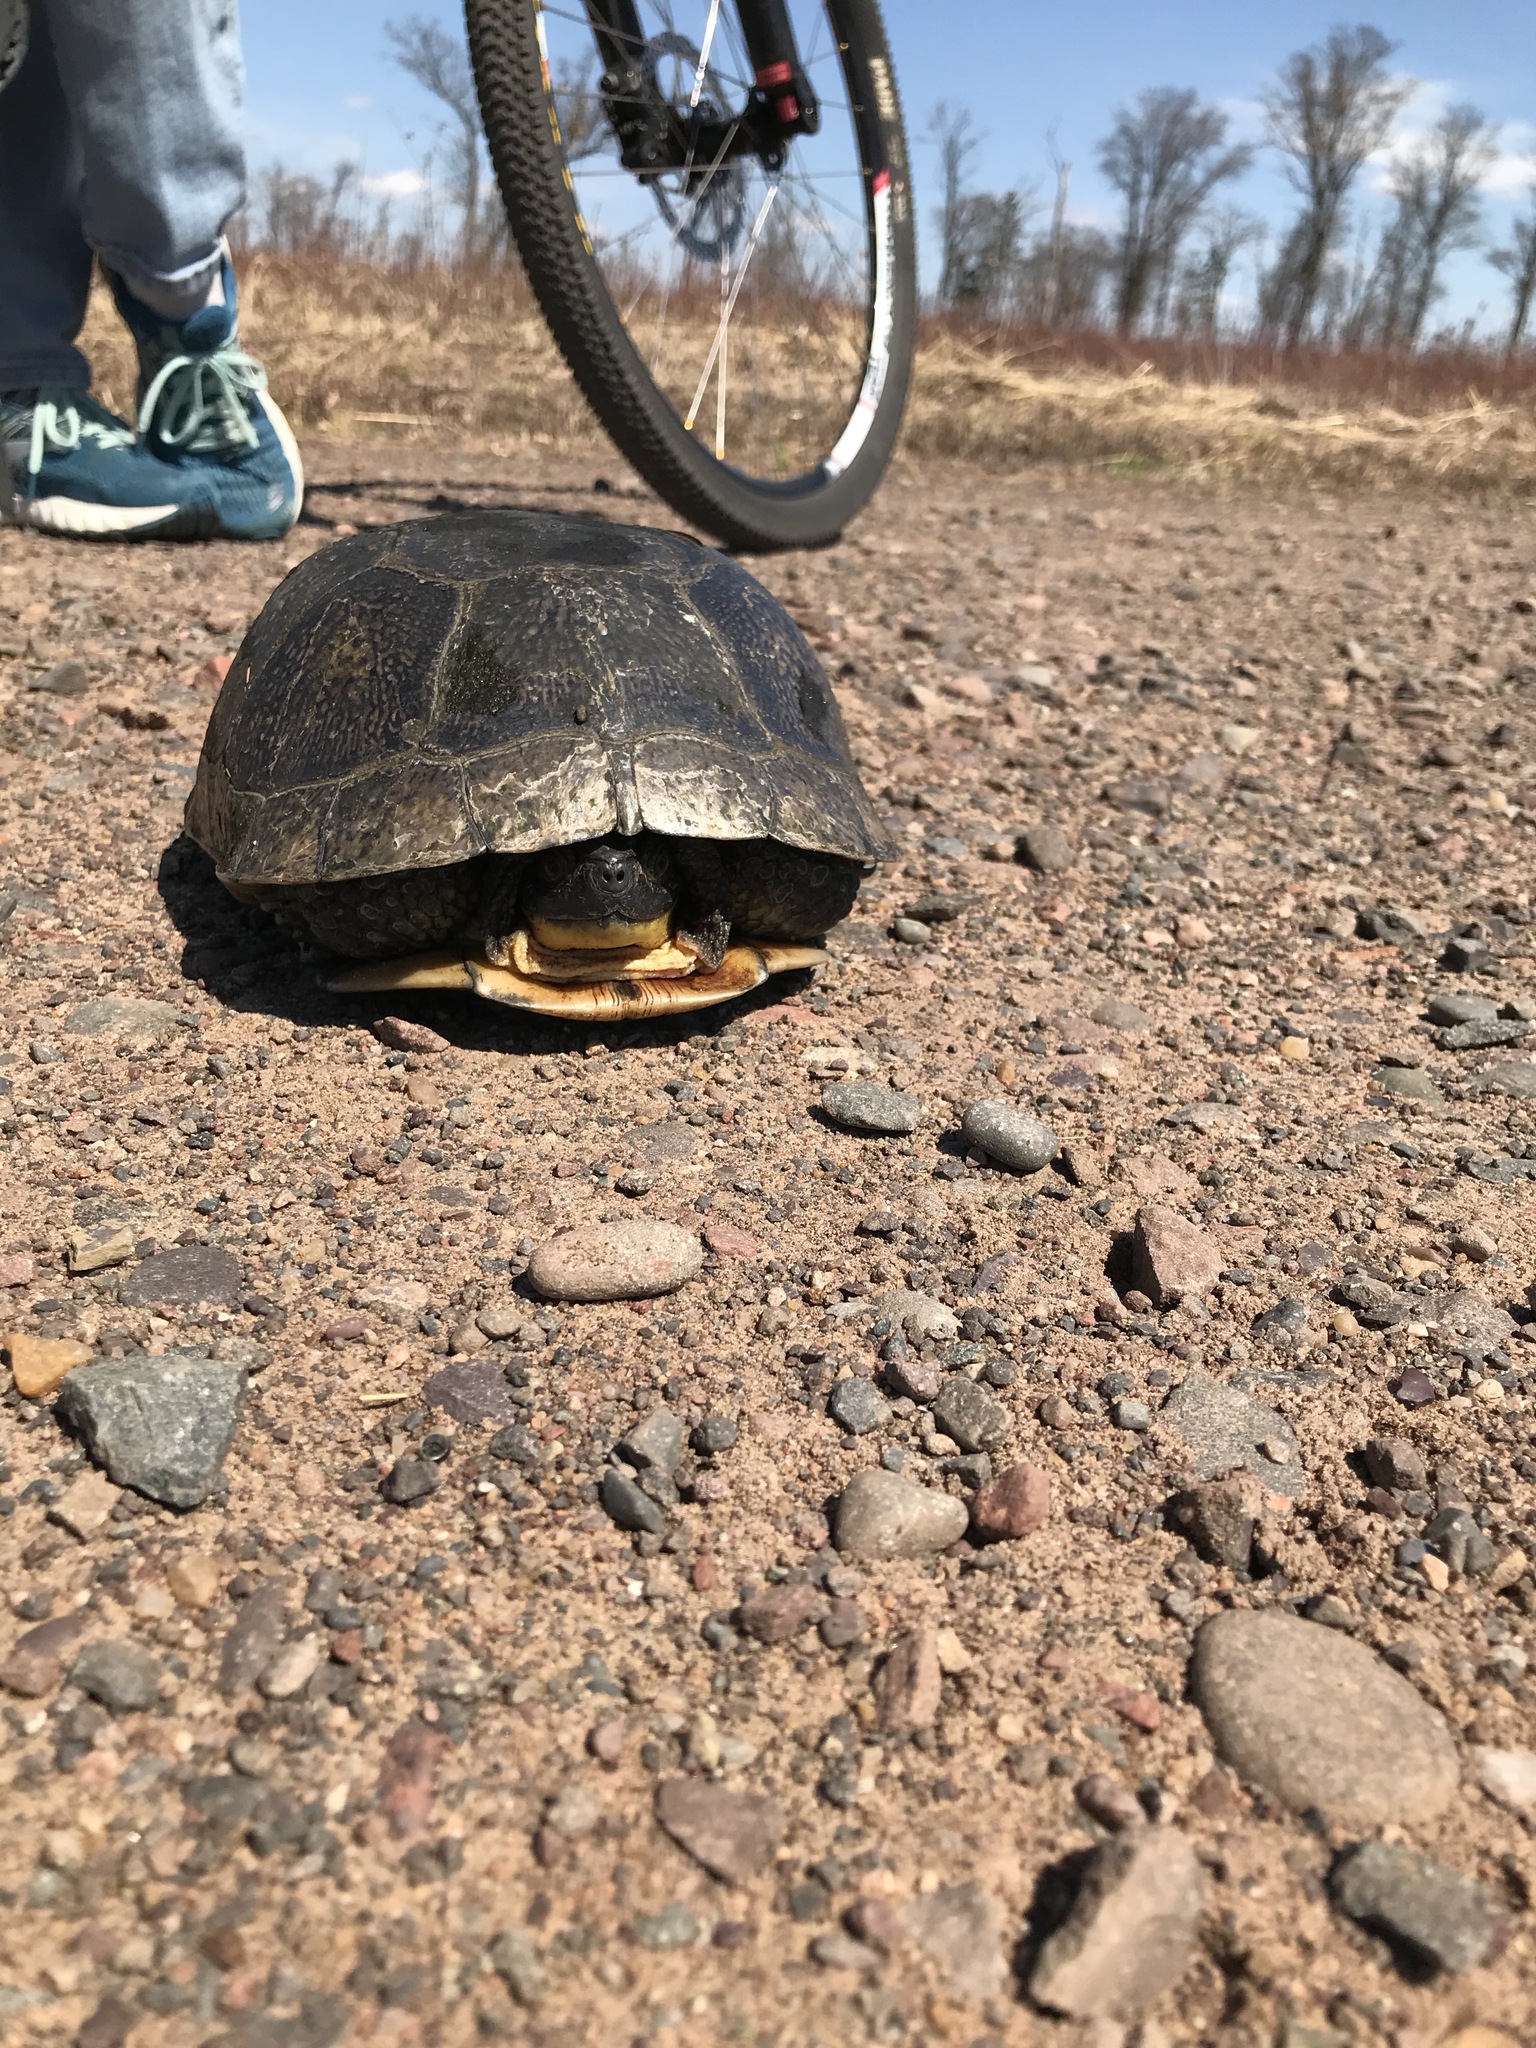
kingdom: Animalia
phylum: Chordata
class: Testudines
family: Emydidae
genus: Emys
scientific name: Emys blandingii
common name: Blanding's turtle
